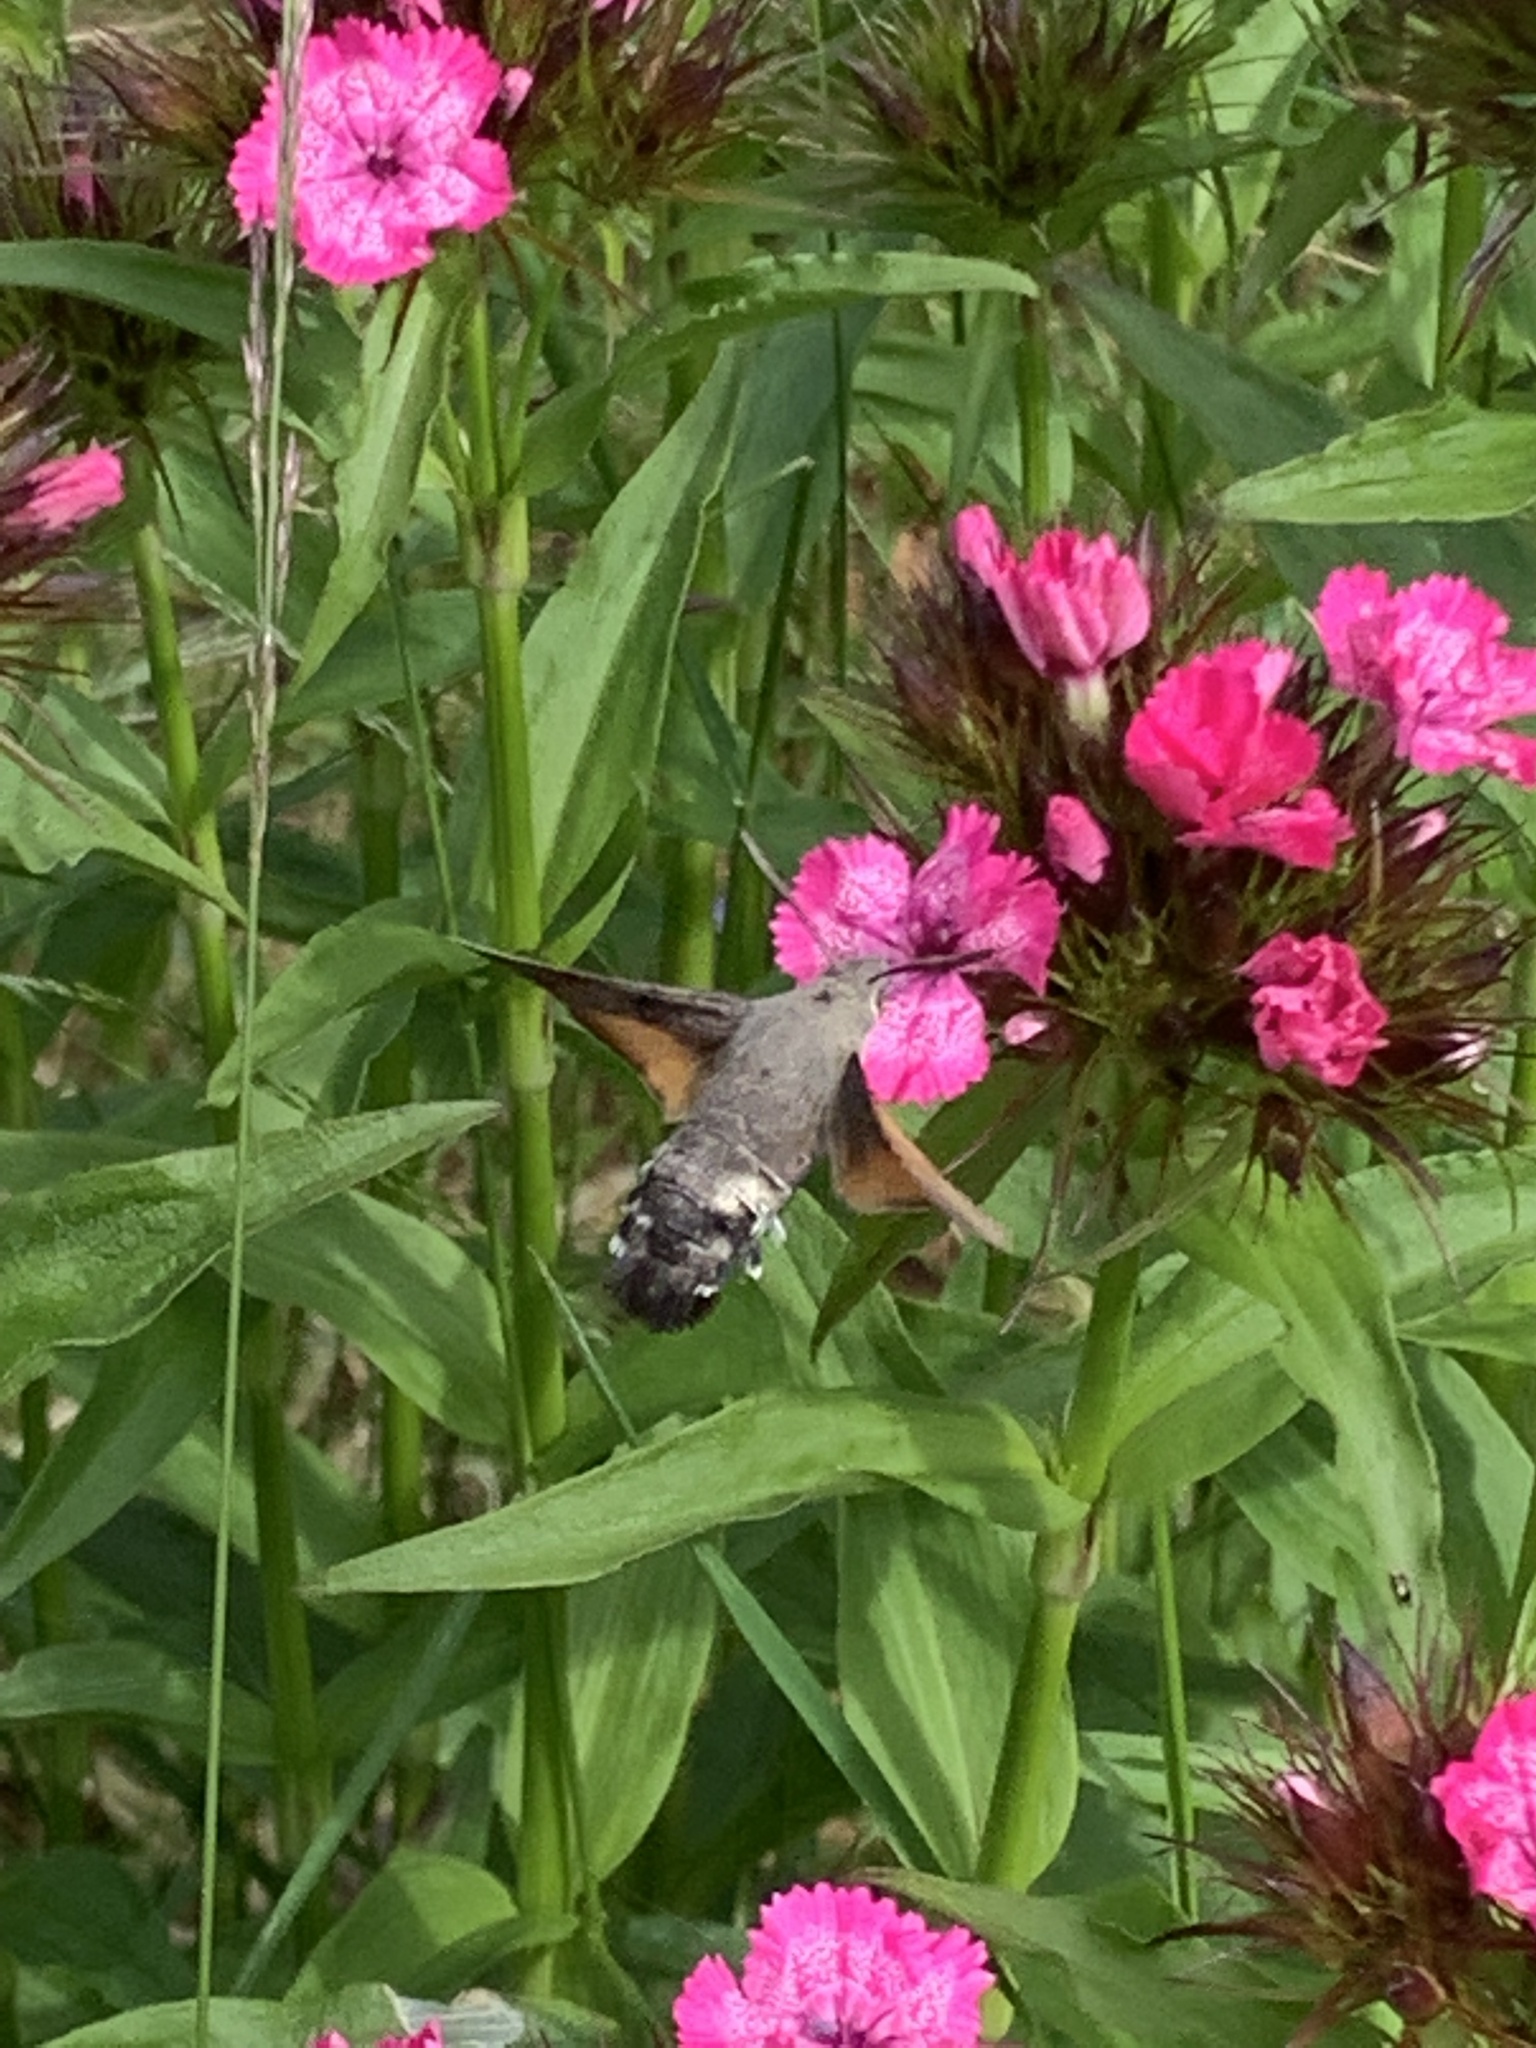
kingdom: Animalia
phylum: Arthropoda
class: Insecta
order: Lepidoptera
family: Sphingidae
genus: Macroglossum
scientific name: Macroglossum stellatarum
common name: Humming-bird hawk-moth
